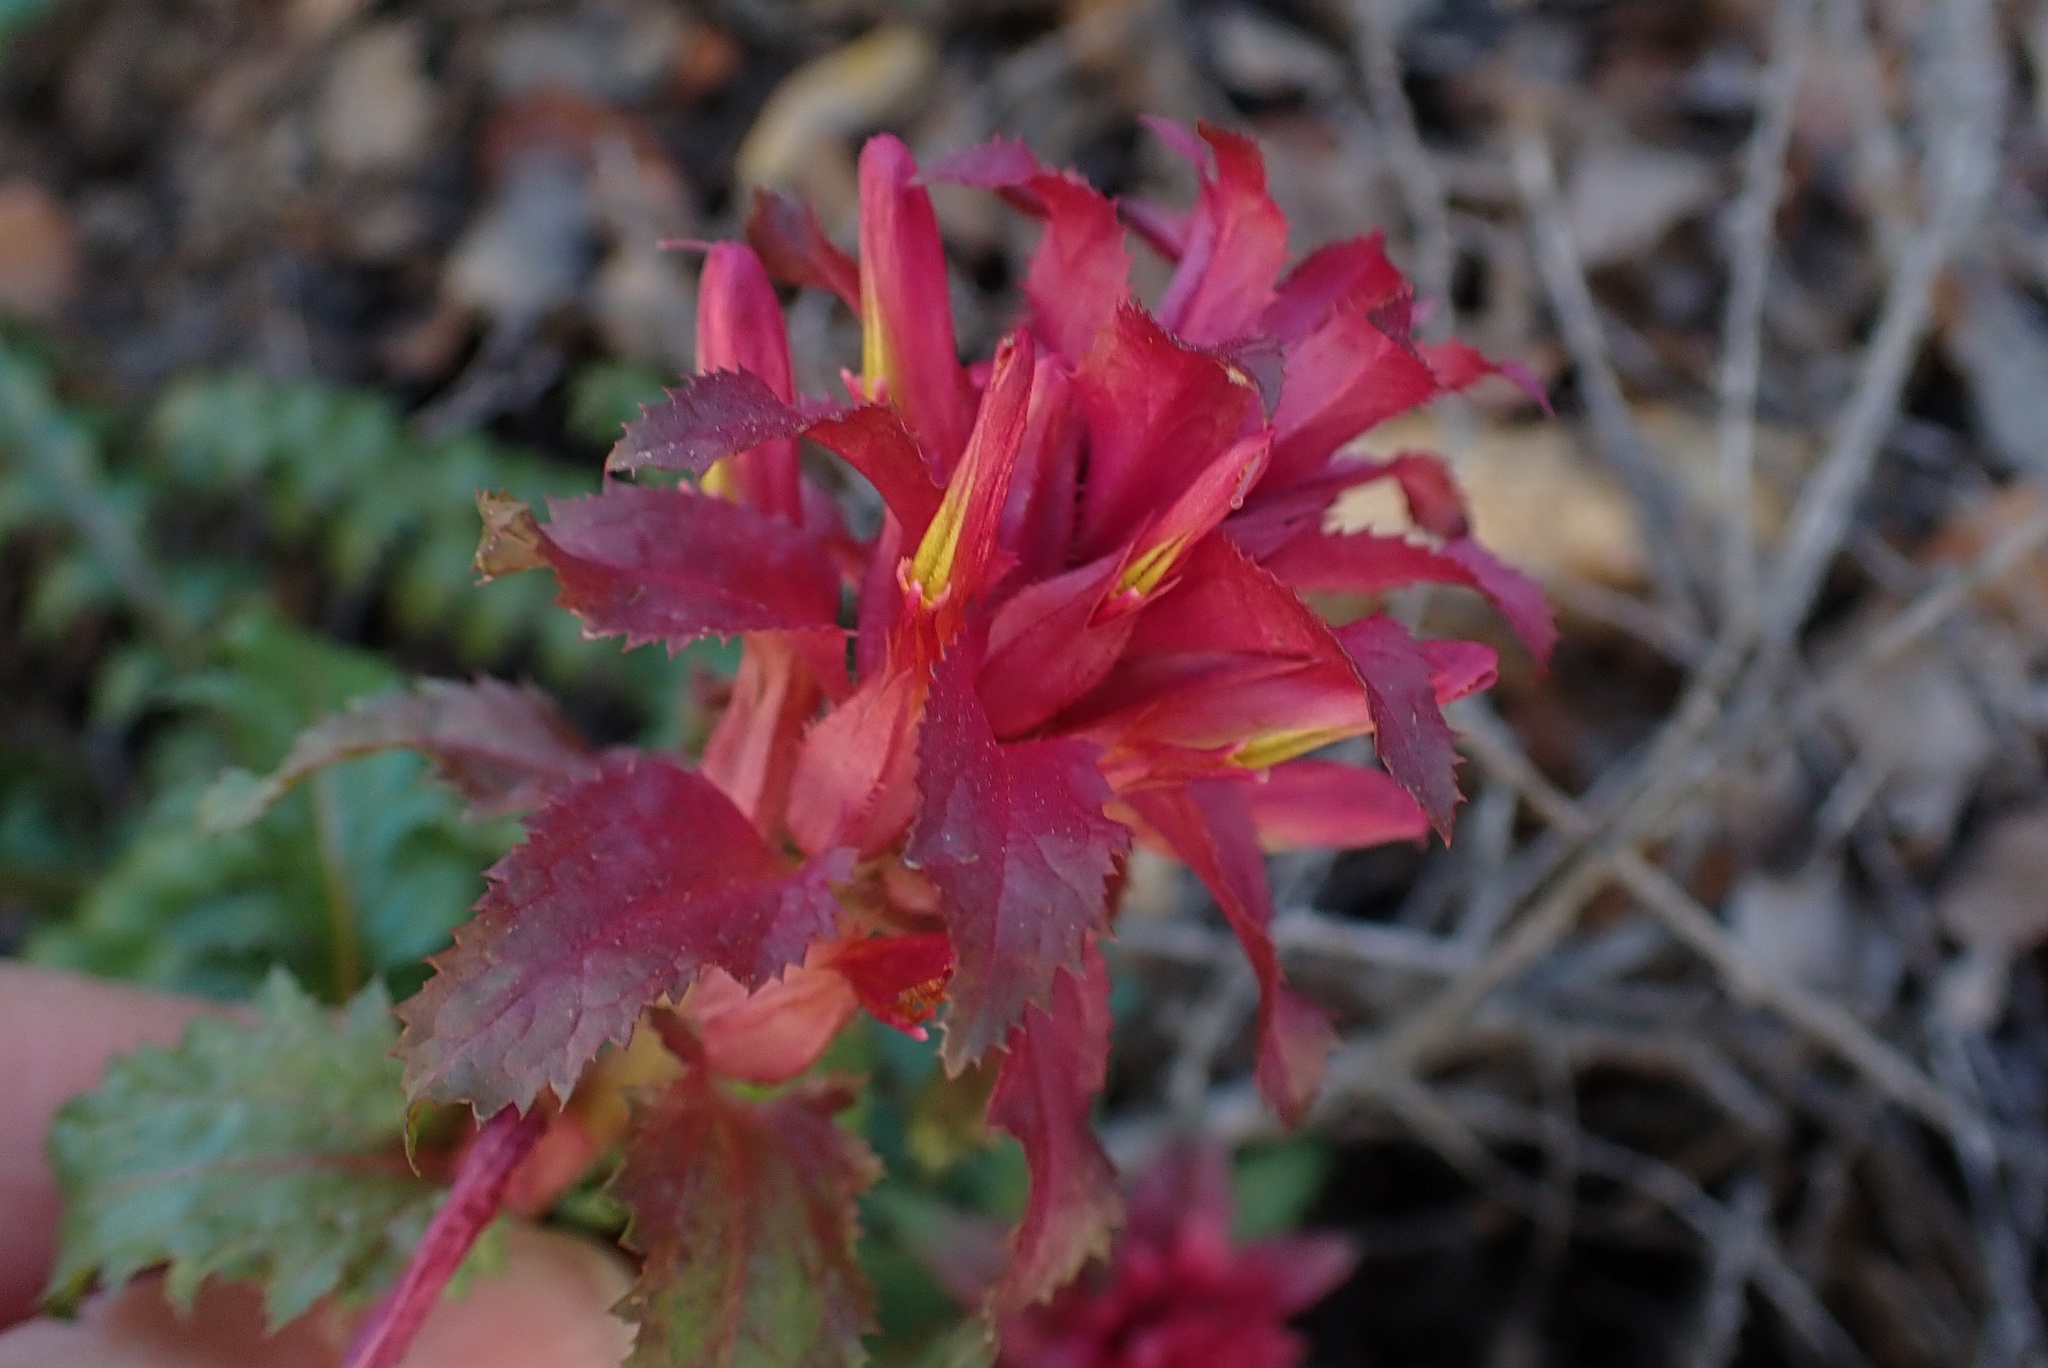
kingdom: Plantae
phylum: Tracheophyta
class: Magnoliopsida
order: Lamiales
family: Orobanchaceae
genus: Pedicularis
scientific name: Pedicularis densiflora
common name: Indian warrior
